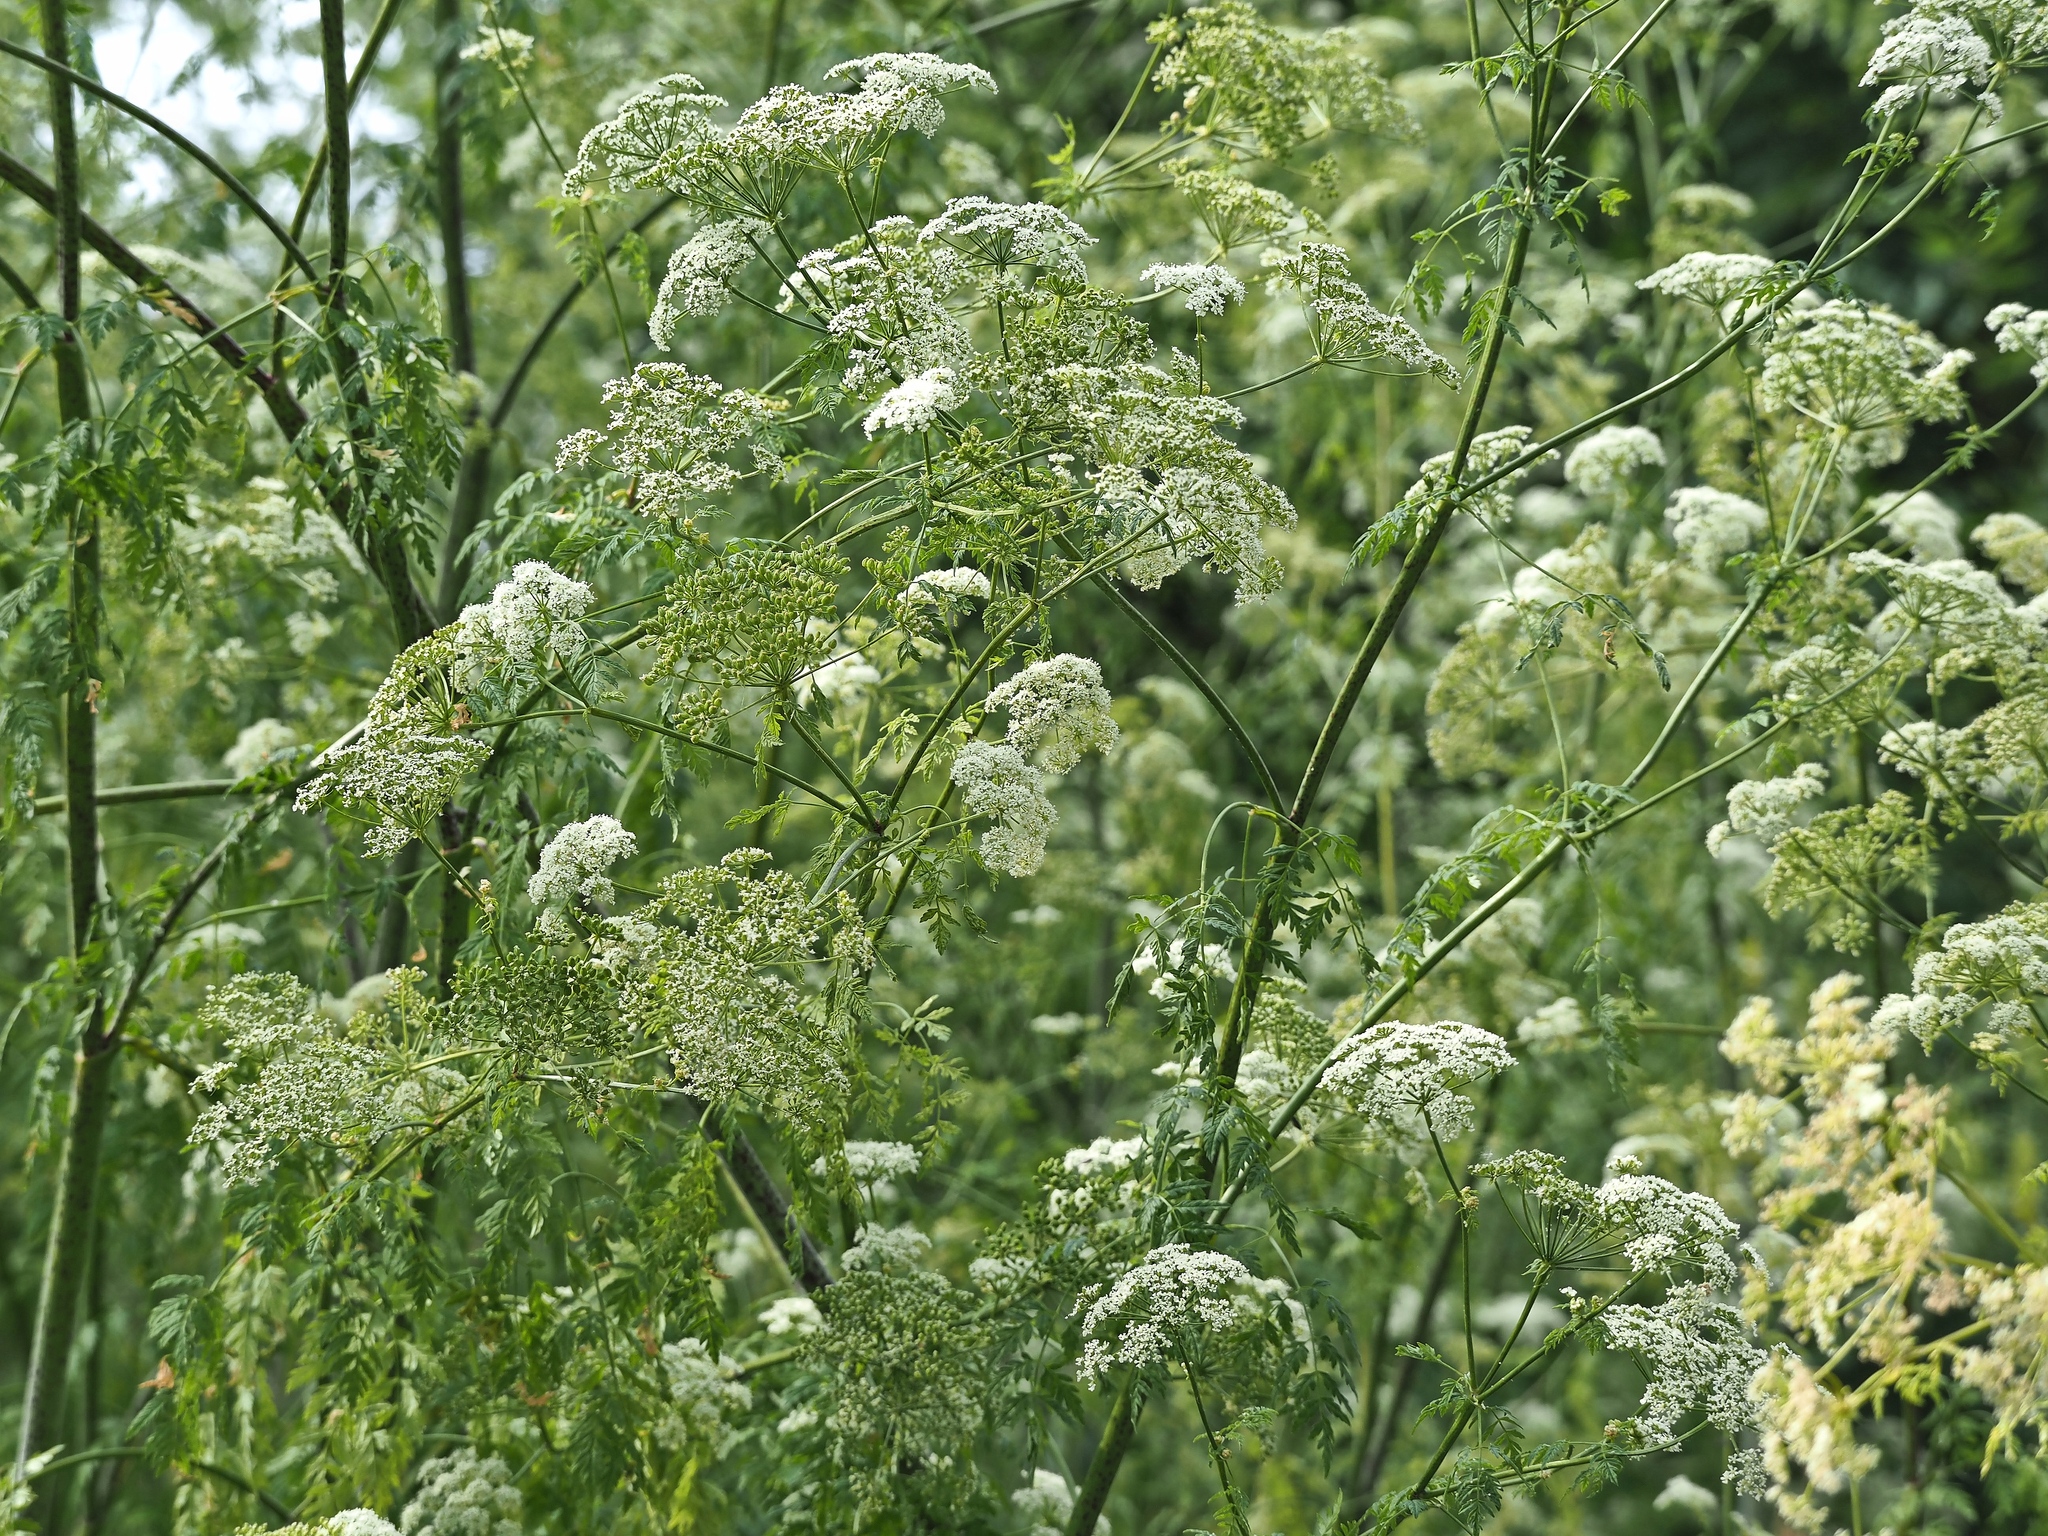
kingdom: Plantae
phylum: Tracheophyta
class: Magnoliopsida
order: Apiales
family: Apiaceae
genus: Conium
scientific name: Conium maculatum
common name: Hemlock
